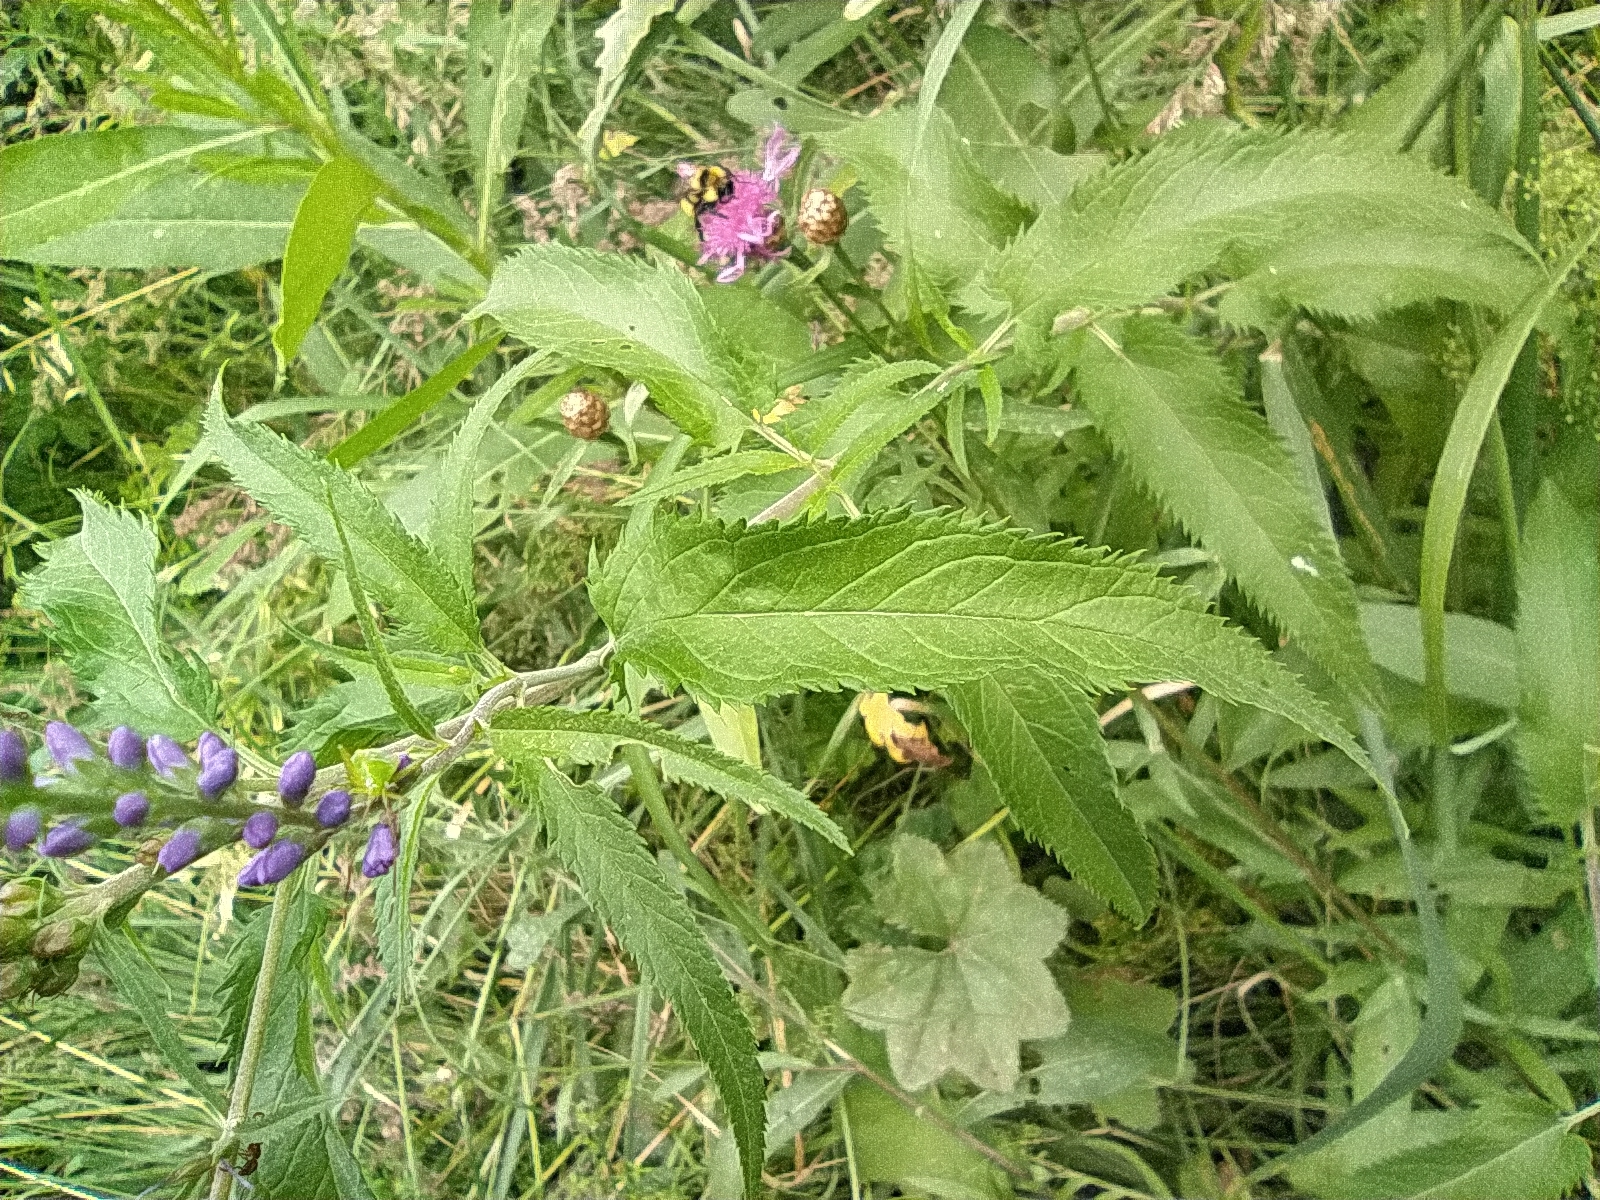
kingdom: Plantae
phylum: Tracheophyta
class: Magnoliopsida
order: Lamiales
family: Plantaginaceae
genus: Veronica
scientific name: Veronica longifolia
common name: Garden speedwell
